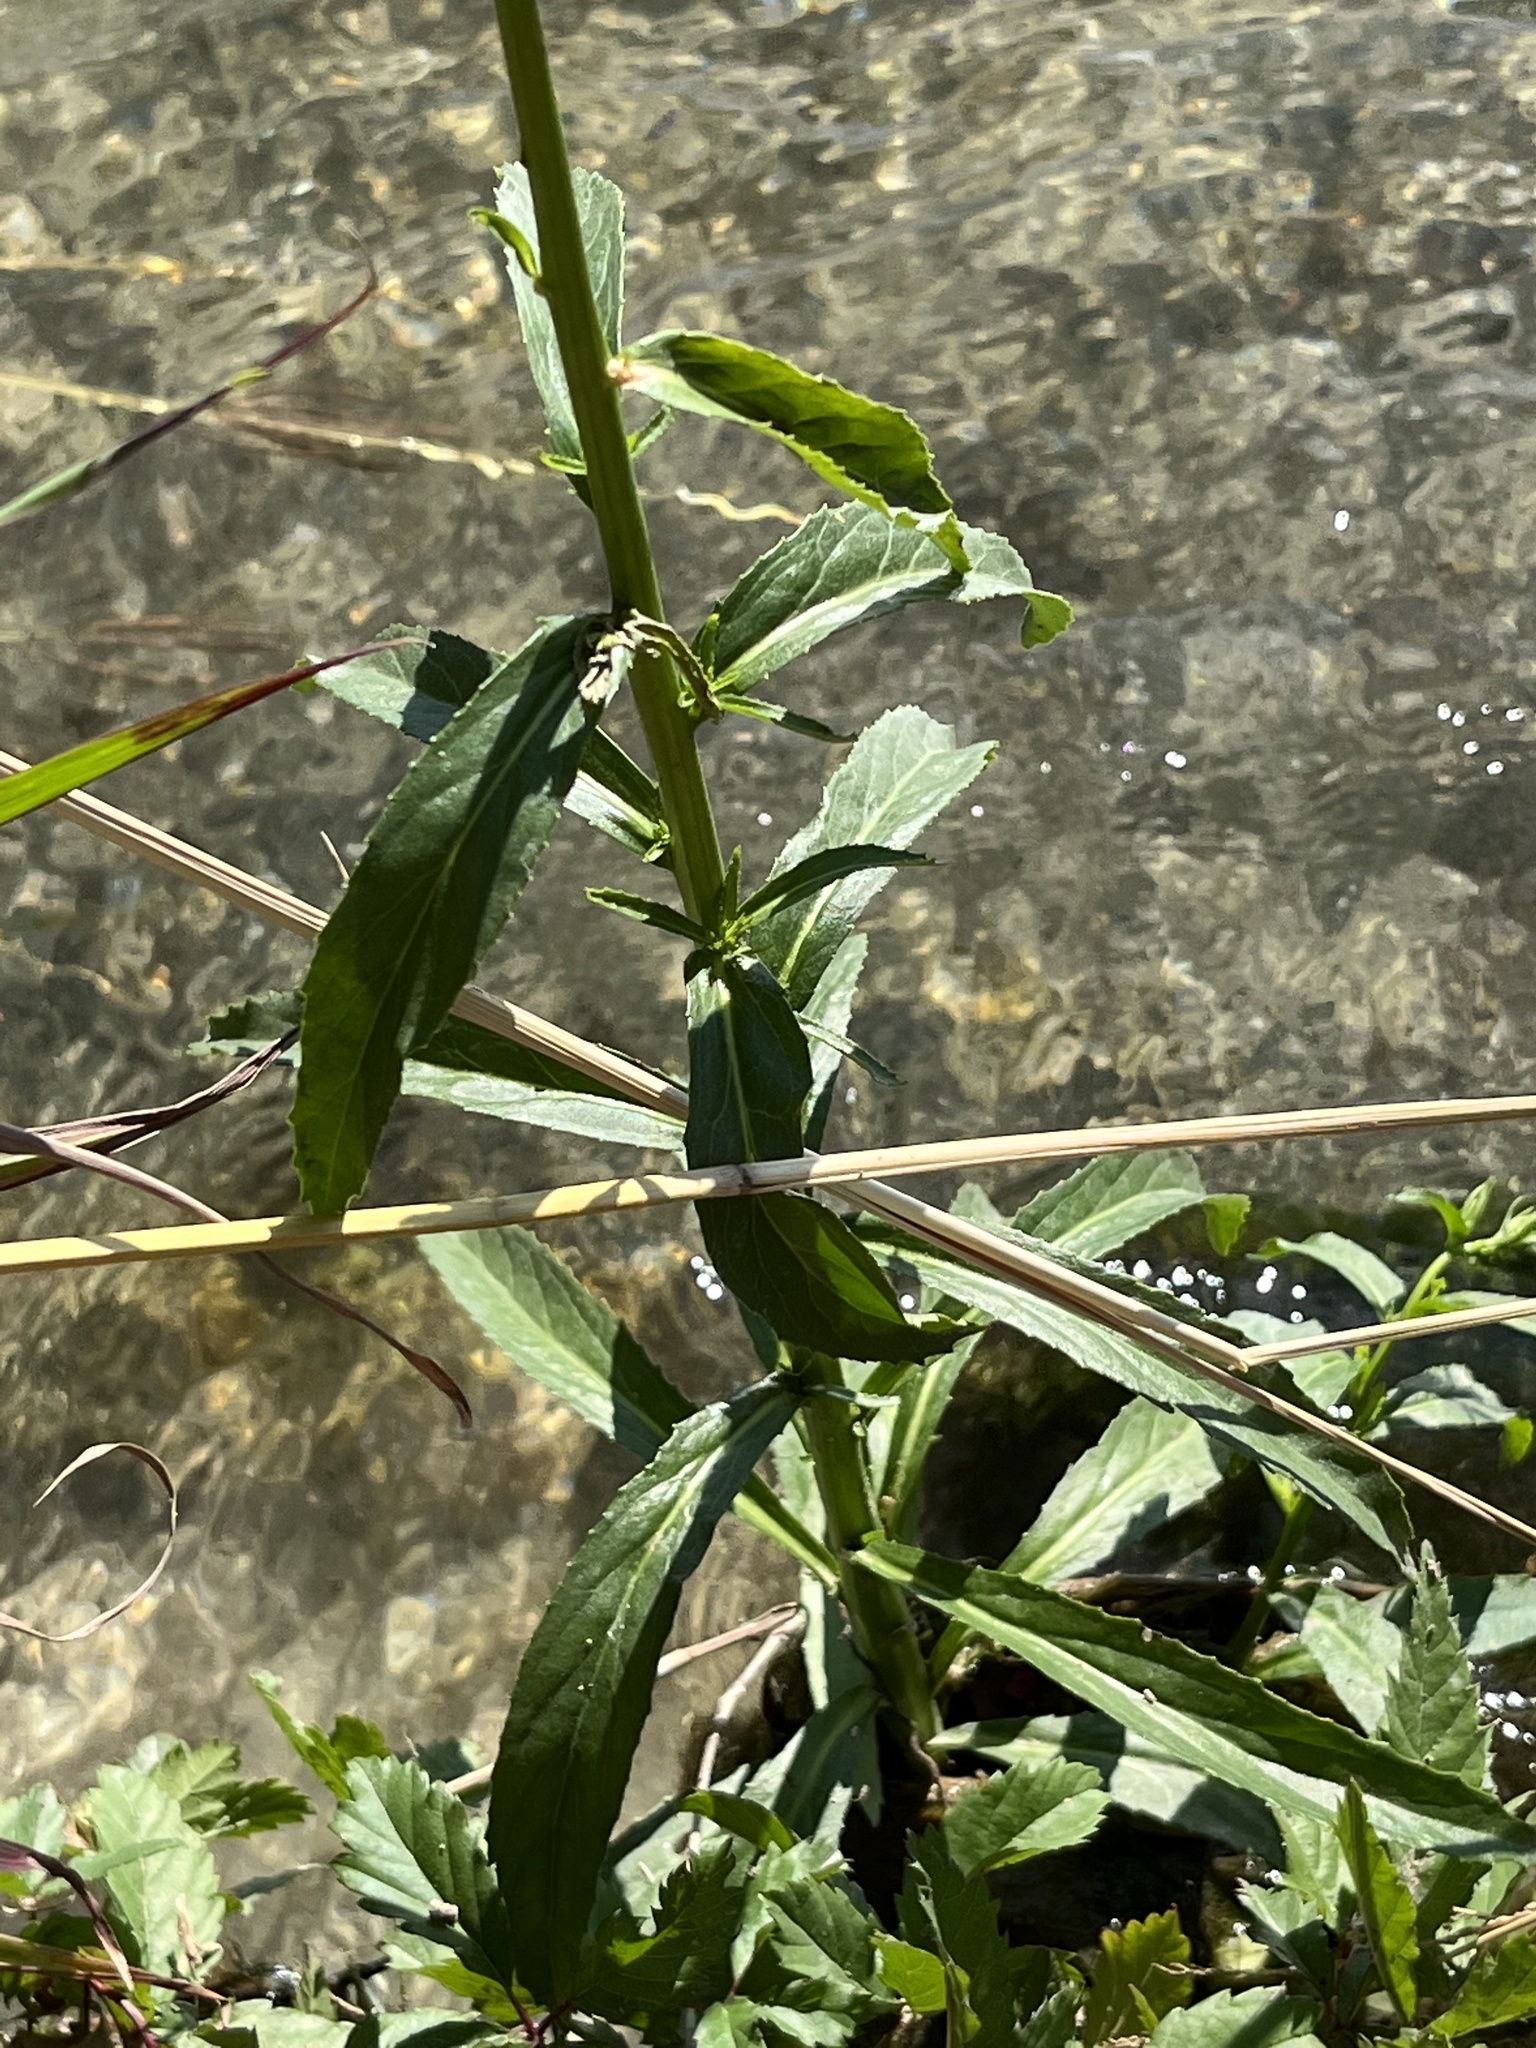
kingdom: Plantae
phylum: Tracheophyta
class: Magnoliopsida
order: Asterales
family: Campanulaceae
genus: Lobelia
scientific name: Lobelia cardinalis
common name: Cardinal flower
